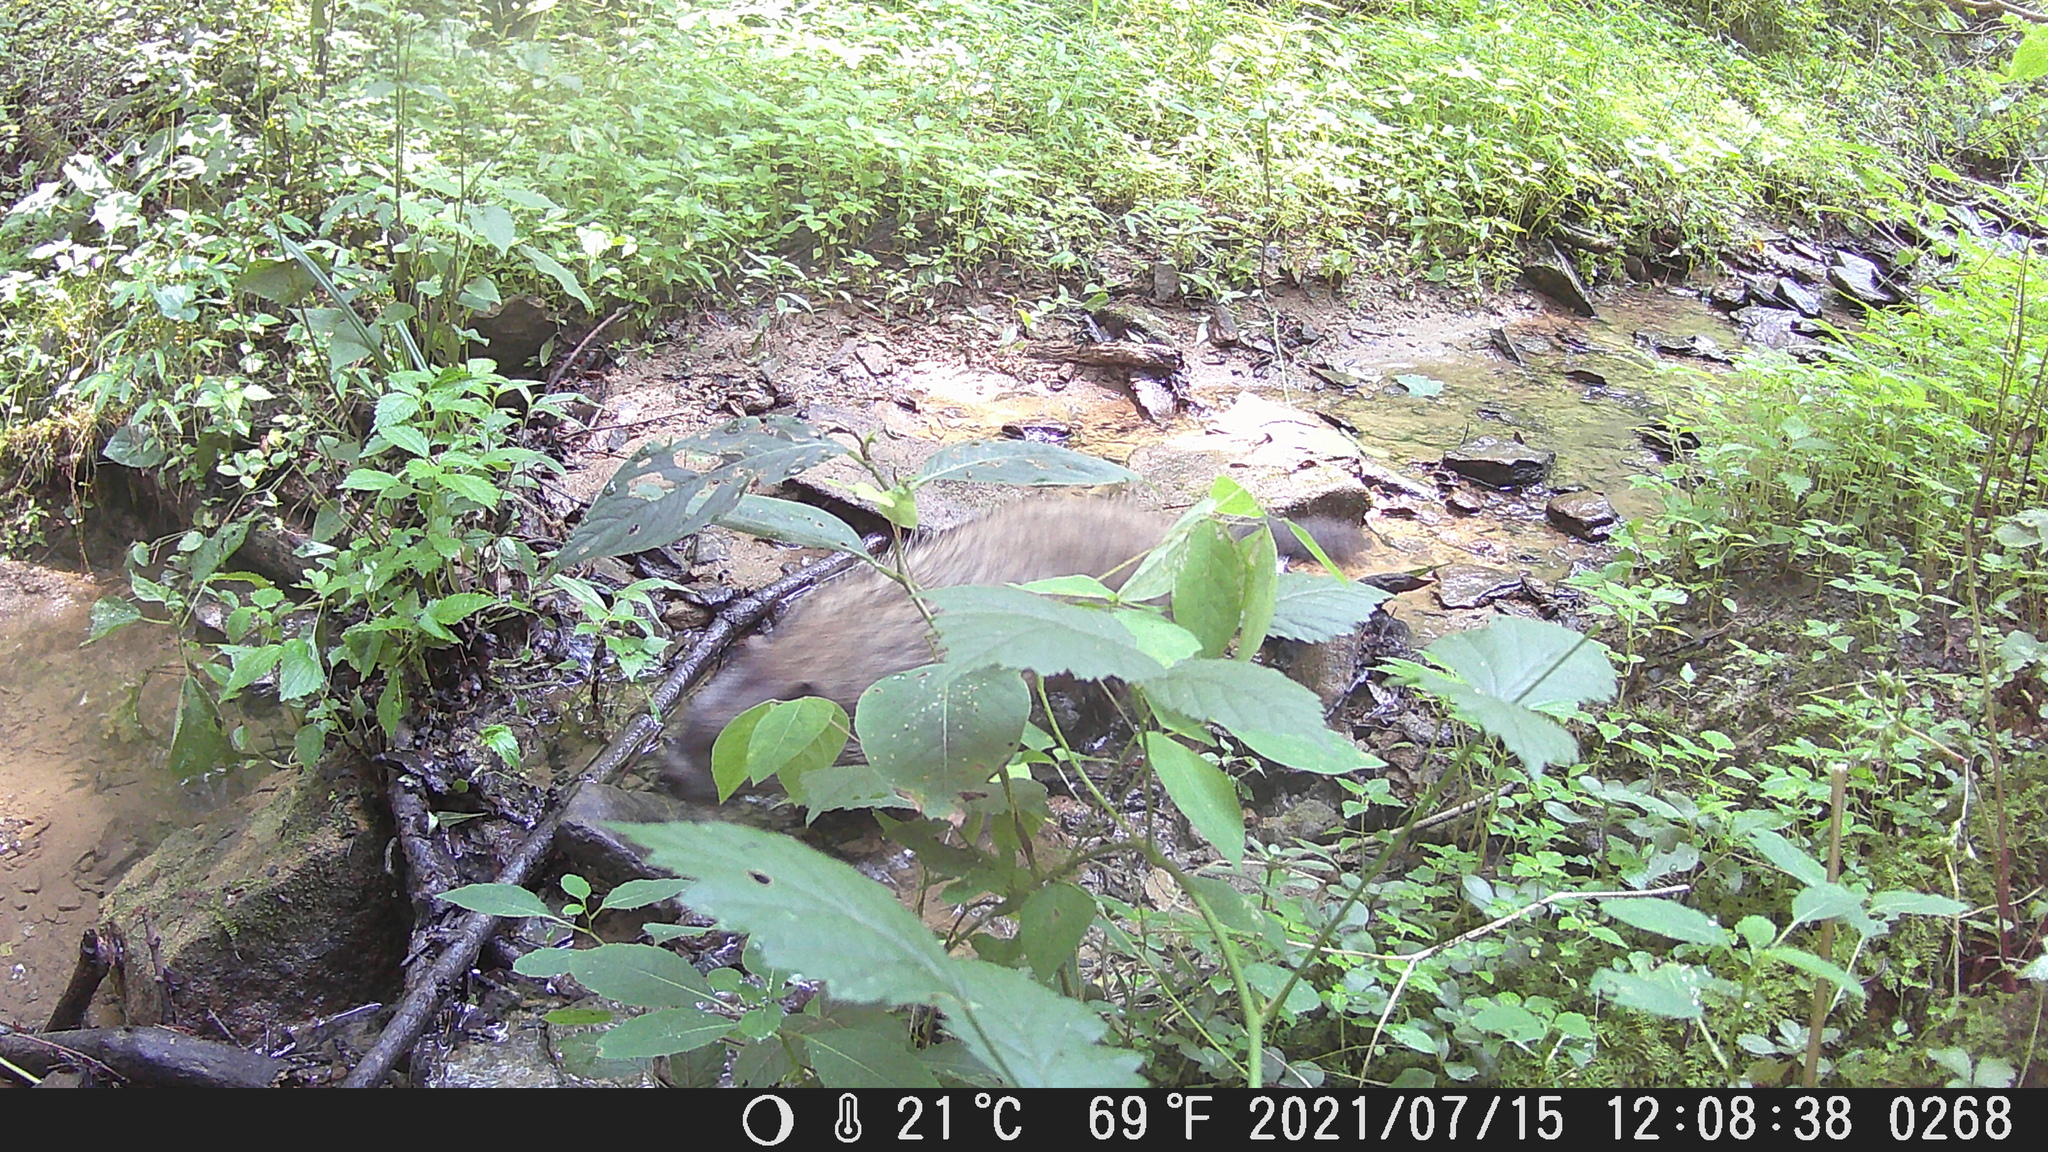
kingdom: Animalia
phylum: Chordata
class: Mammalia
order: Rodentia
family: Sciuridae
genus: Marmota
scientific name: Marmota monax
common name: Groundhog
